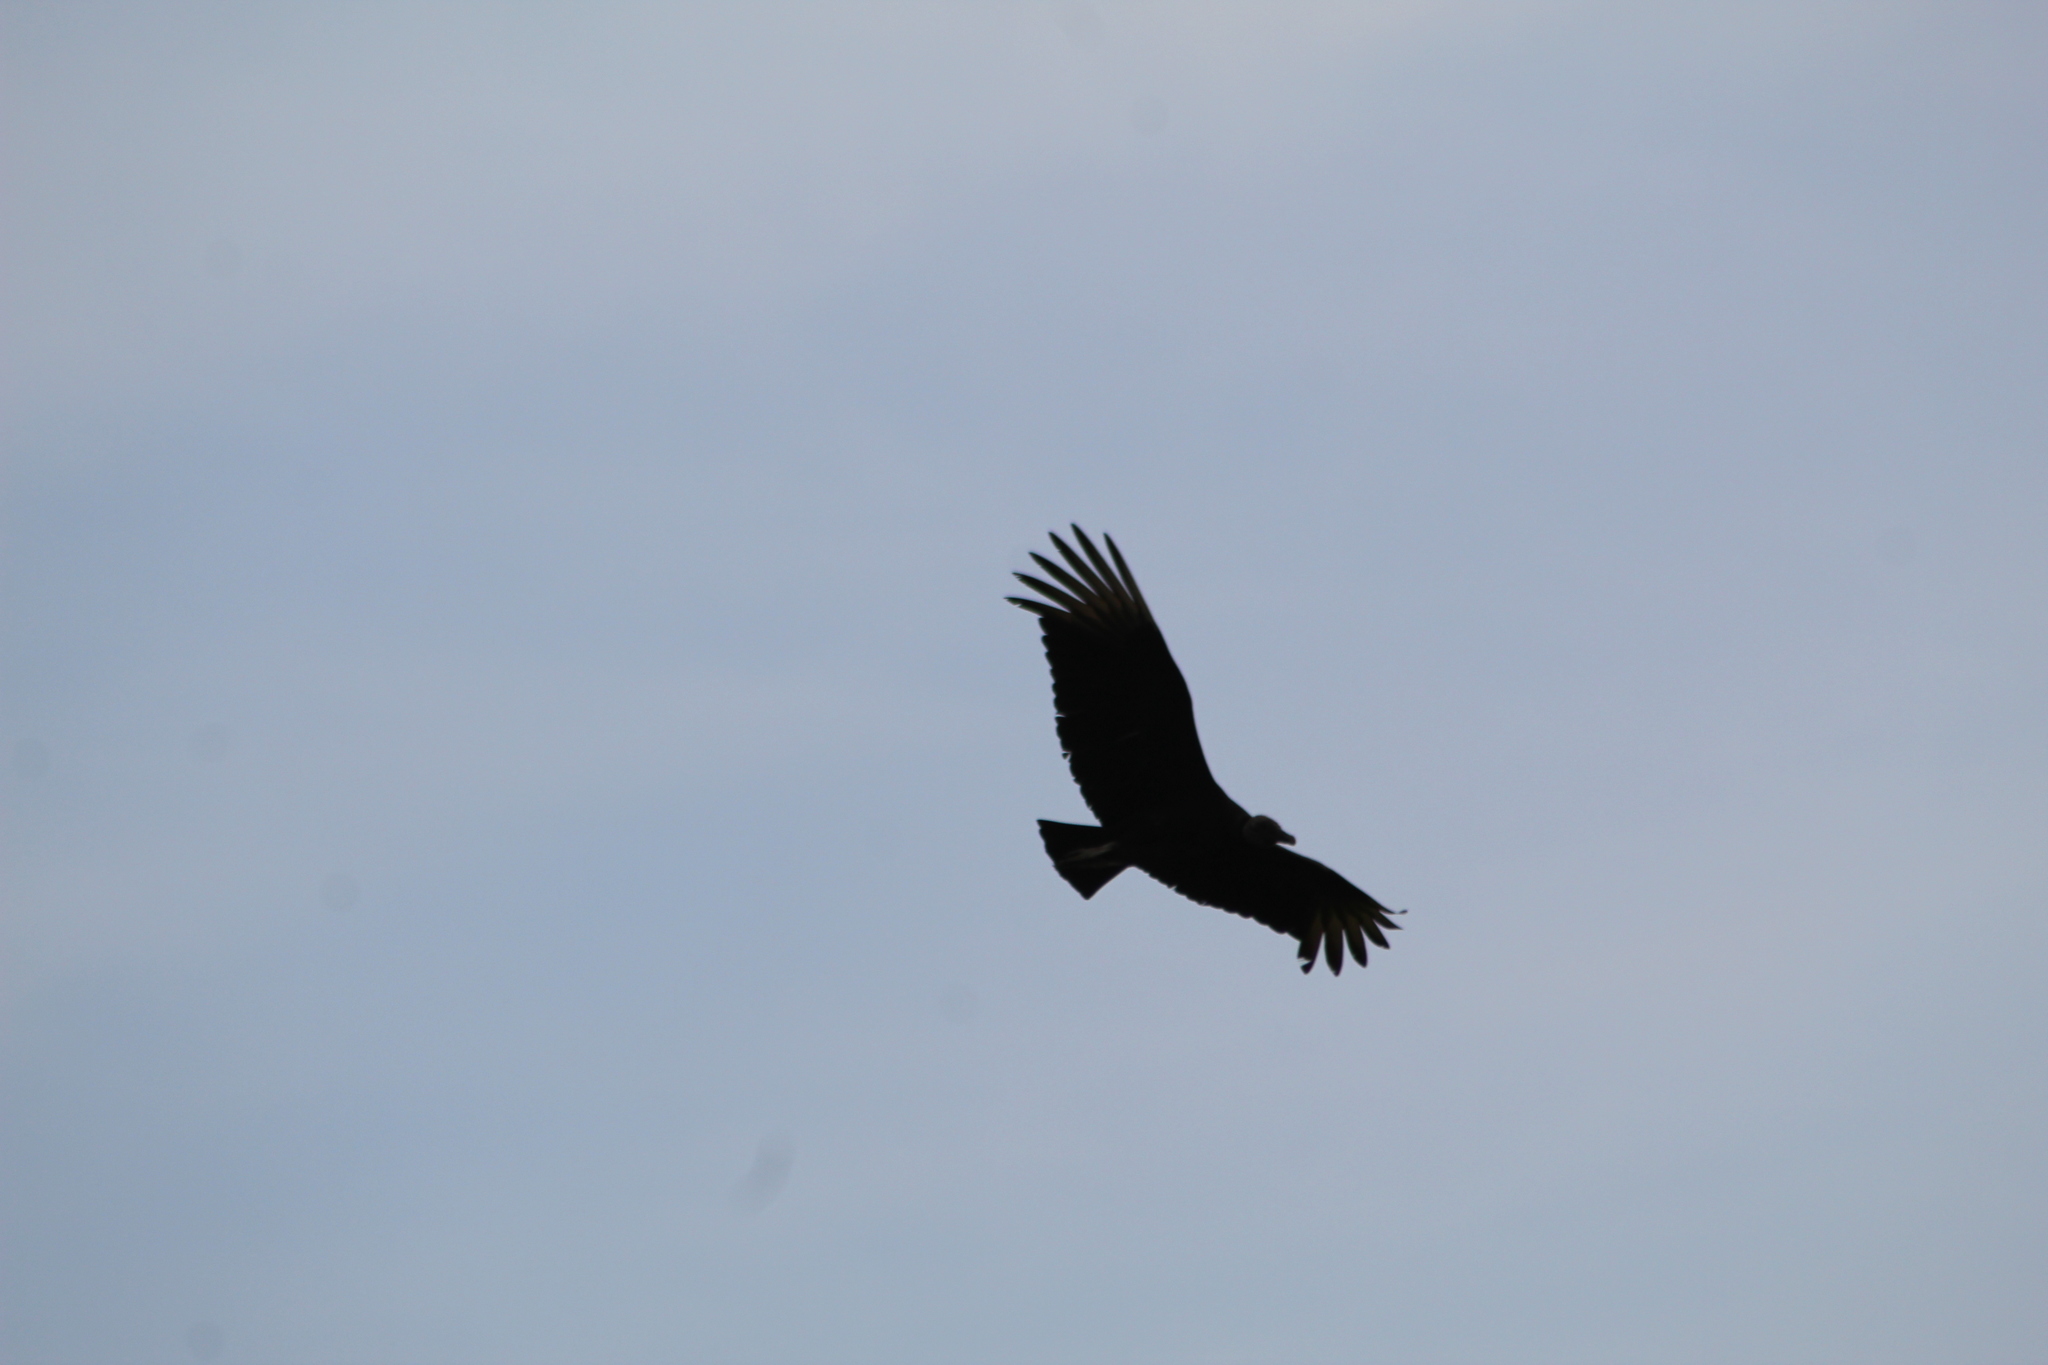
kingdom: Animalia
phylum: Chordata
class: Aves
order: Accipitriformes
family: Cathartidae
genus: Coragyps
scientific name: Coragyps atratus
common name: Black vulture
